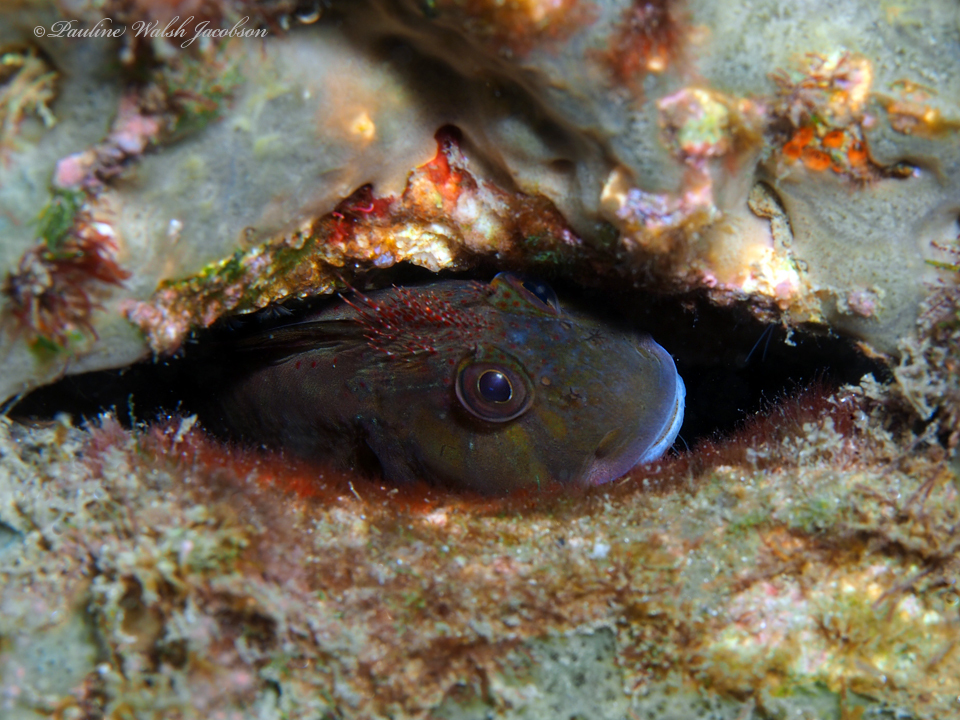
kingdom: Animalia
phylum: Chordata
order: Perciformes
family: Blenniidae
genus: Scartella
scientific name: Scartella cristata
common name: Molly miller
